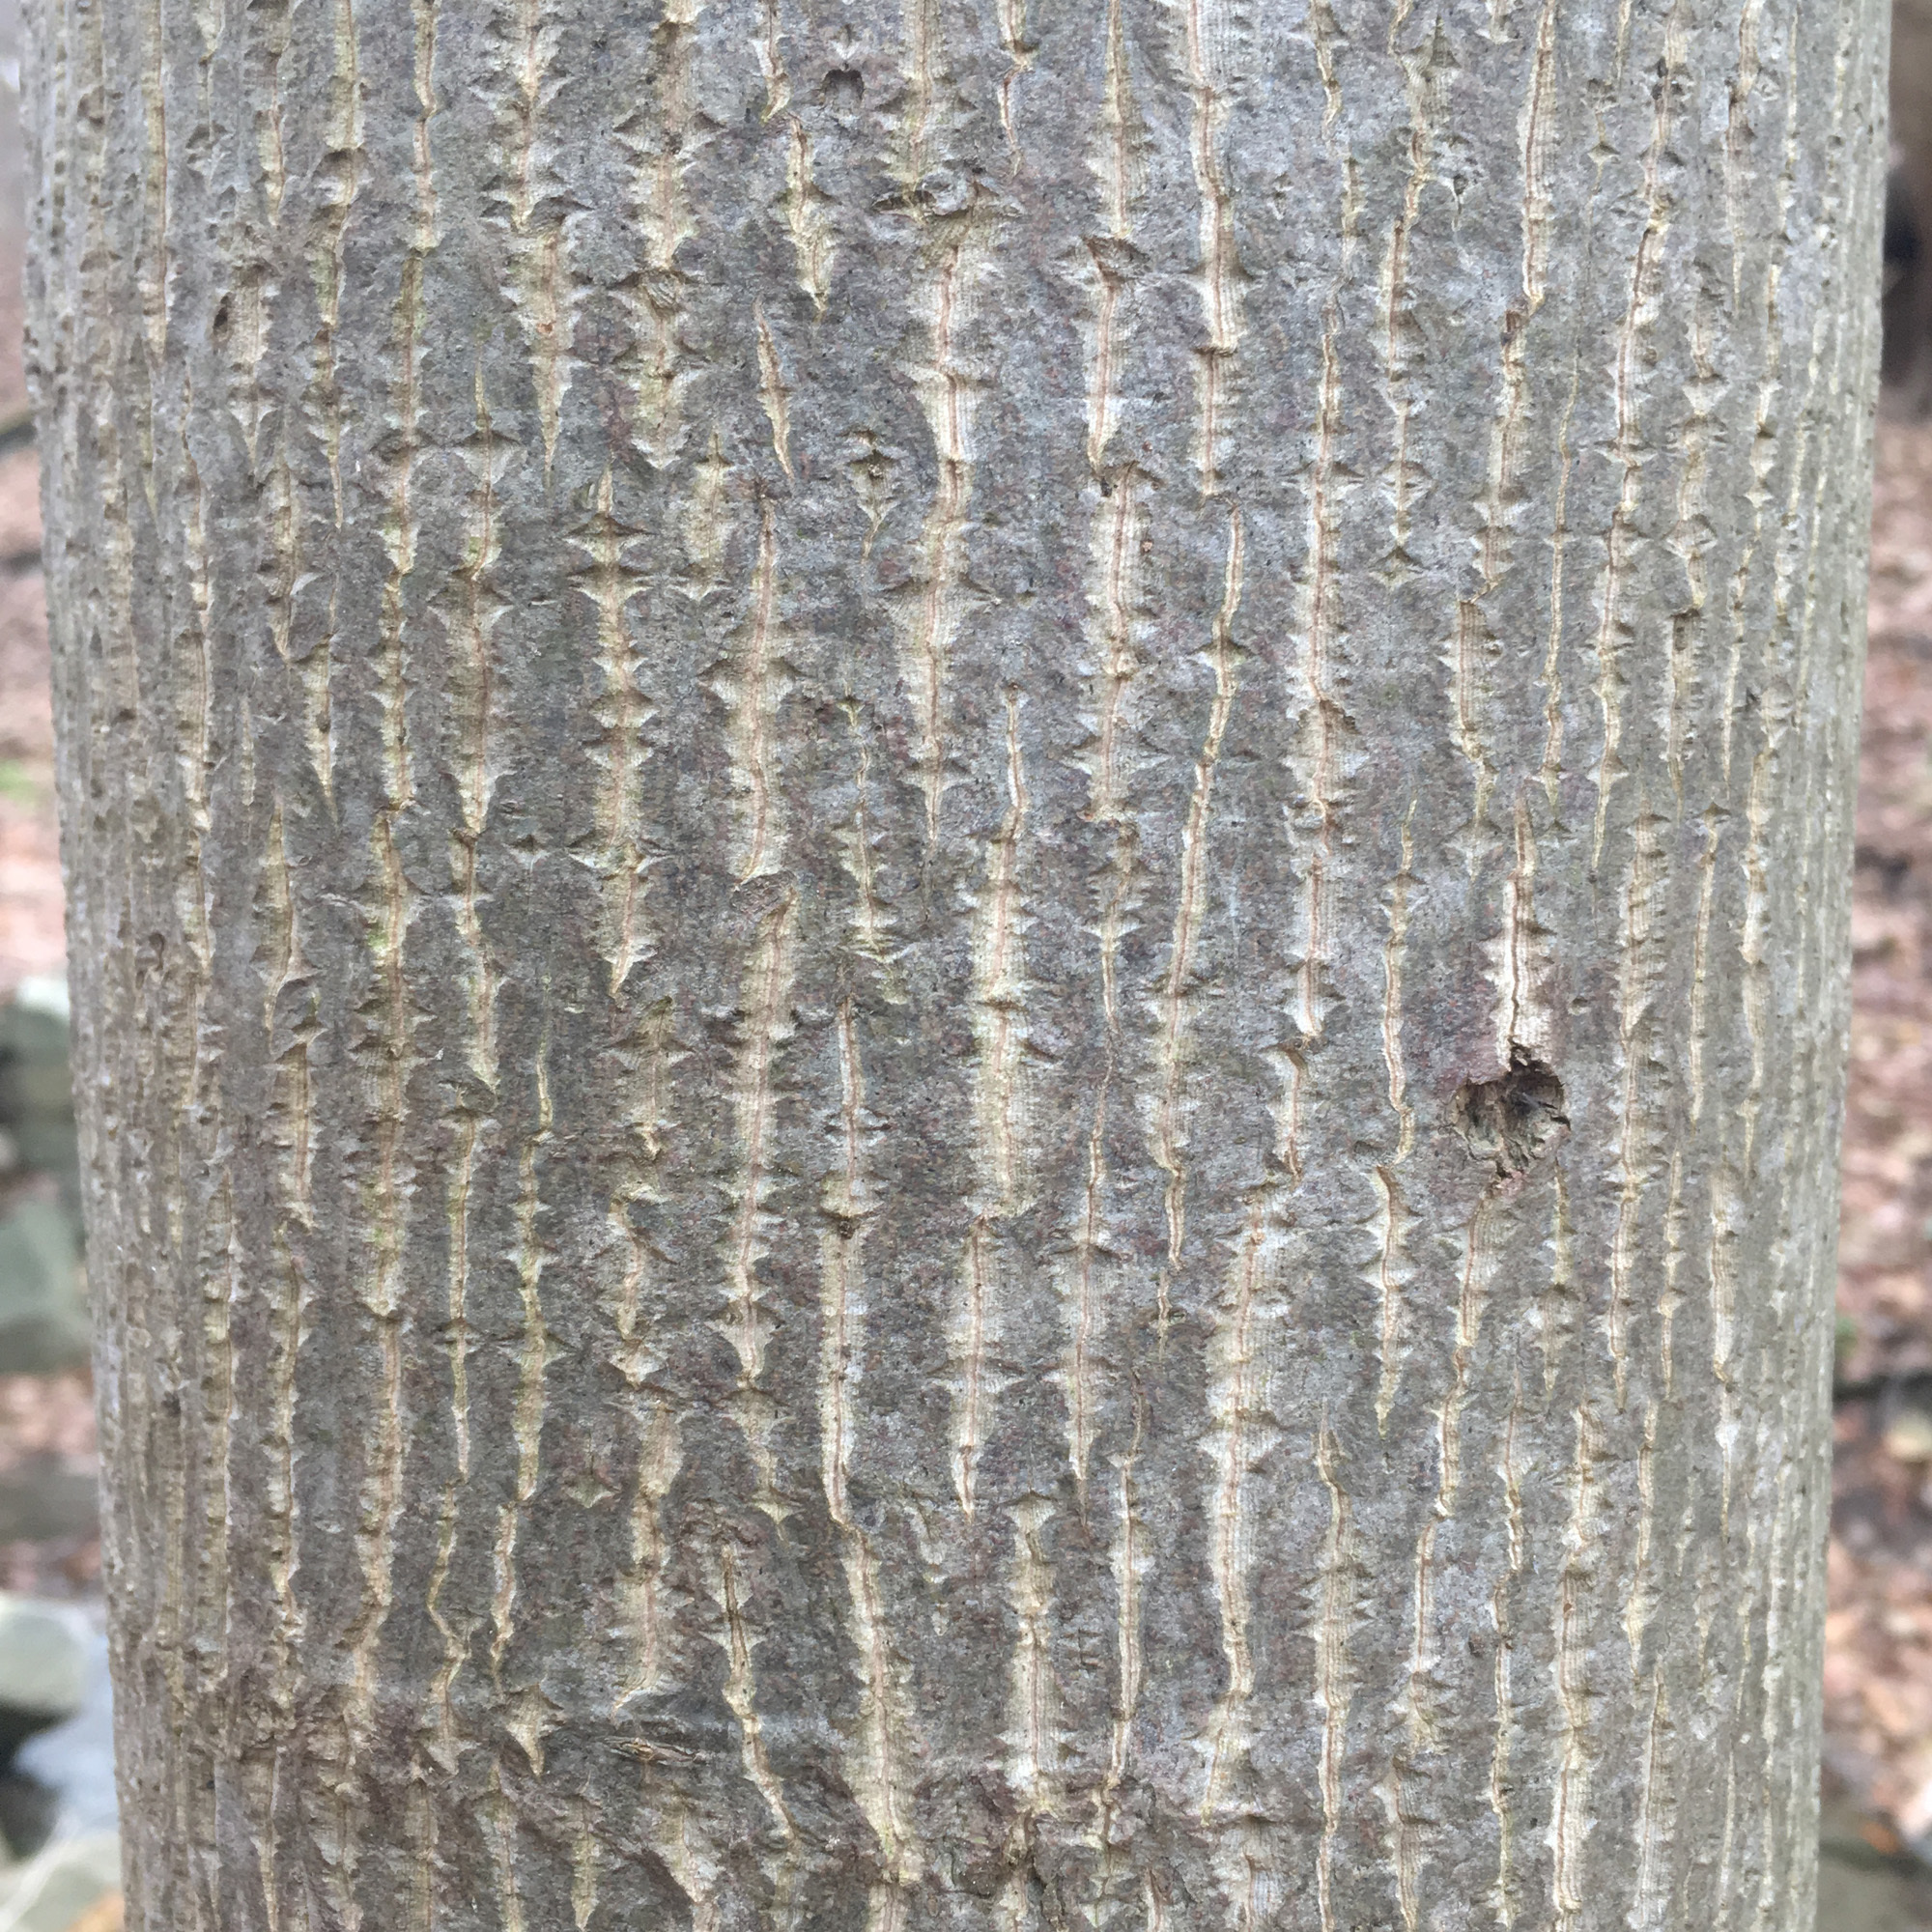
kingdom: Plantae
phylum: Tracheophyta
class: Magnoliopsida
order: Magnoliales
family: Magnoliaceae
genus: Liriodendron
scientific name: Liriodendron tulipifera
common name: Tulip tree
